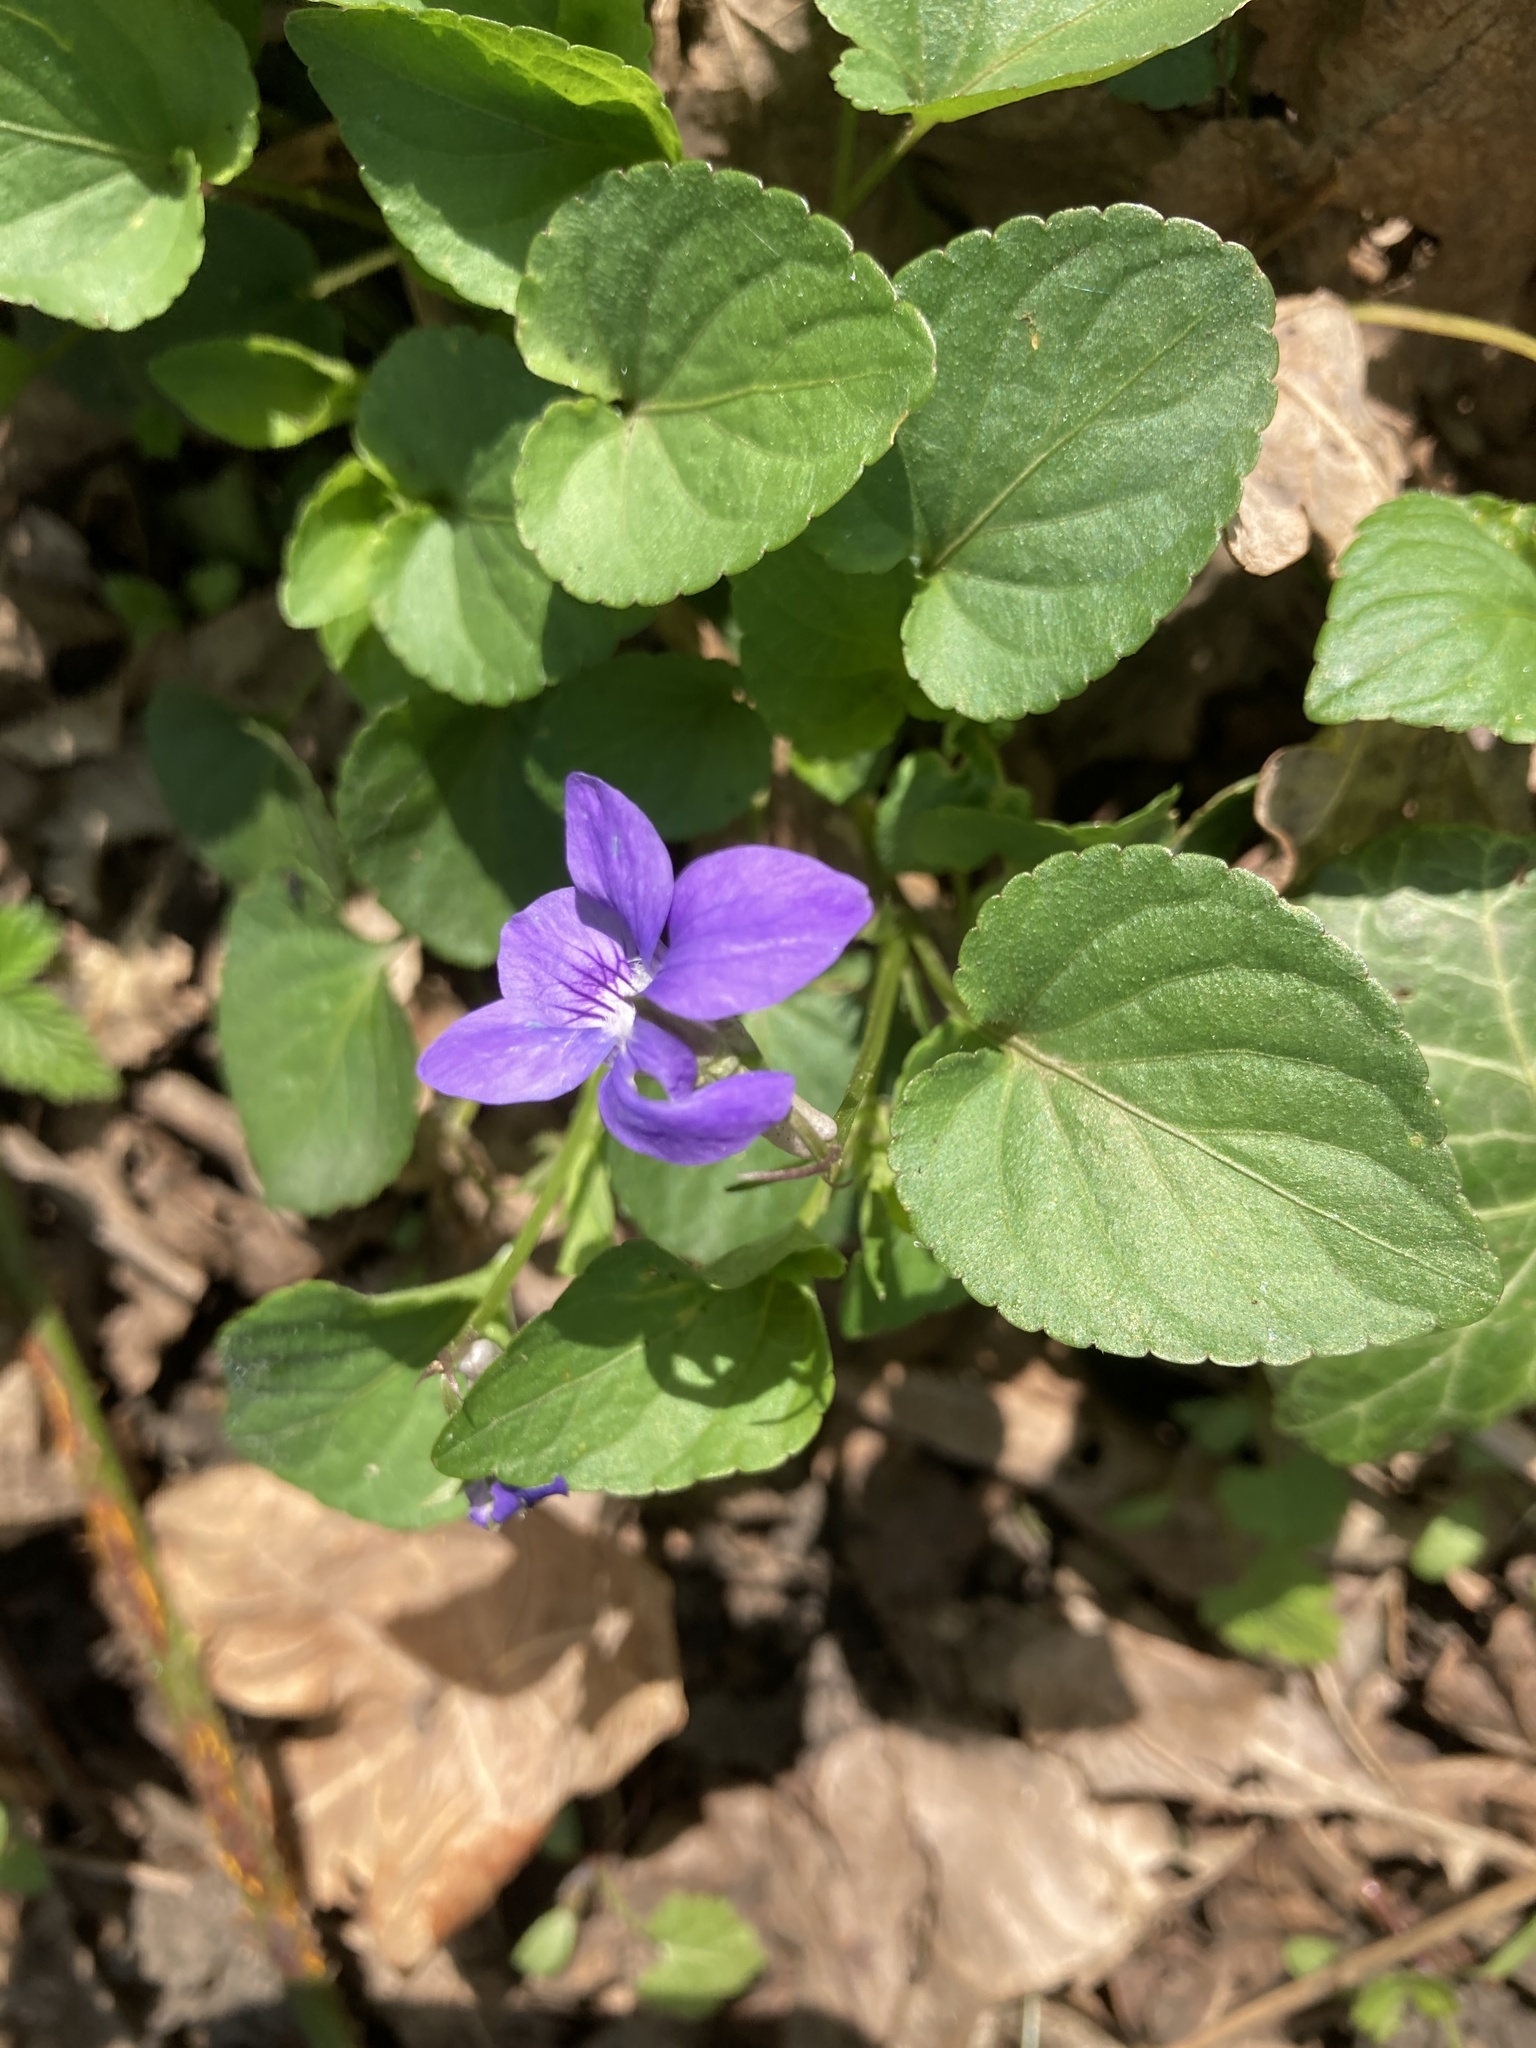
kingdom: Plantae
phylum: Tracheophyta
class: Magnoliopsida
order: Malpighiales
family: Violaceae
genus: Viola
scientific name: Viola riviniana
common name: Common dog-violet
